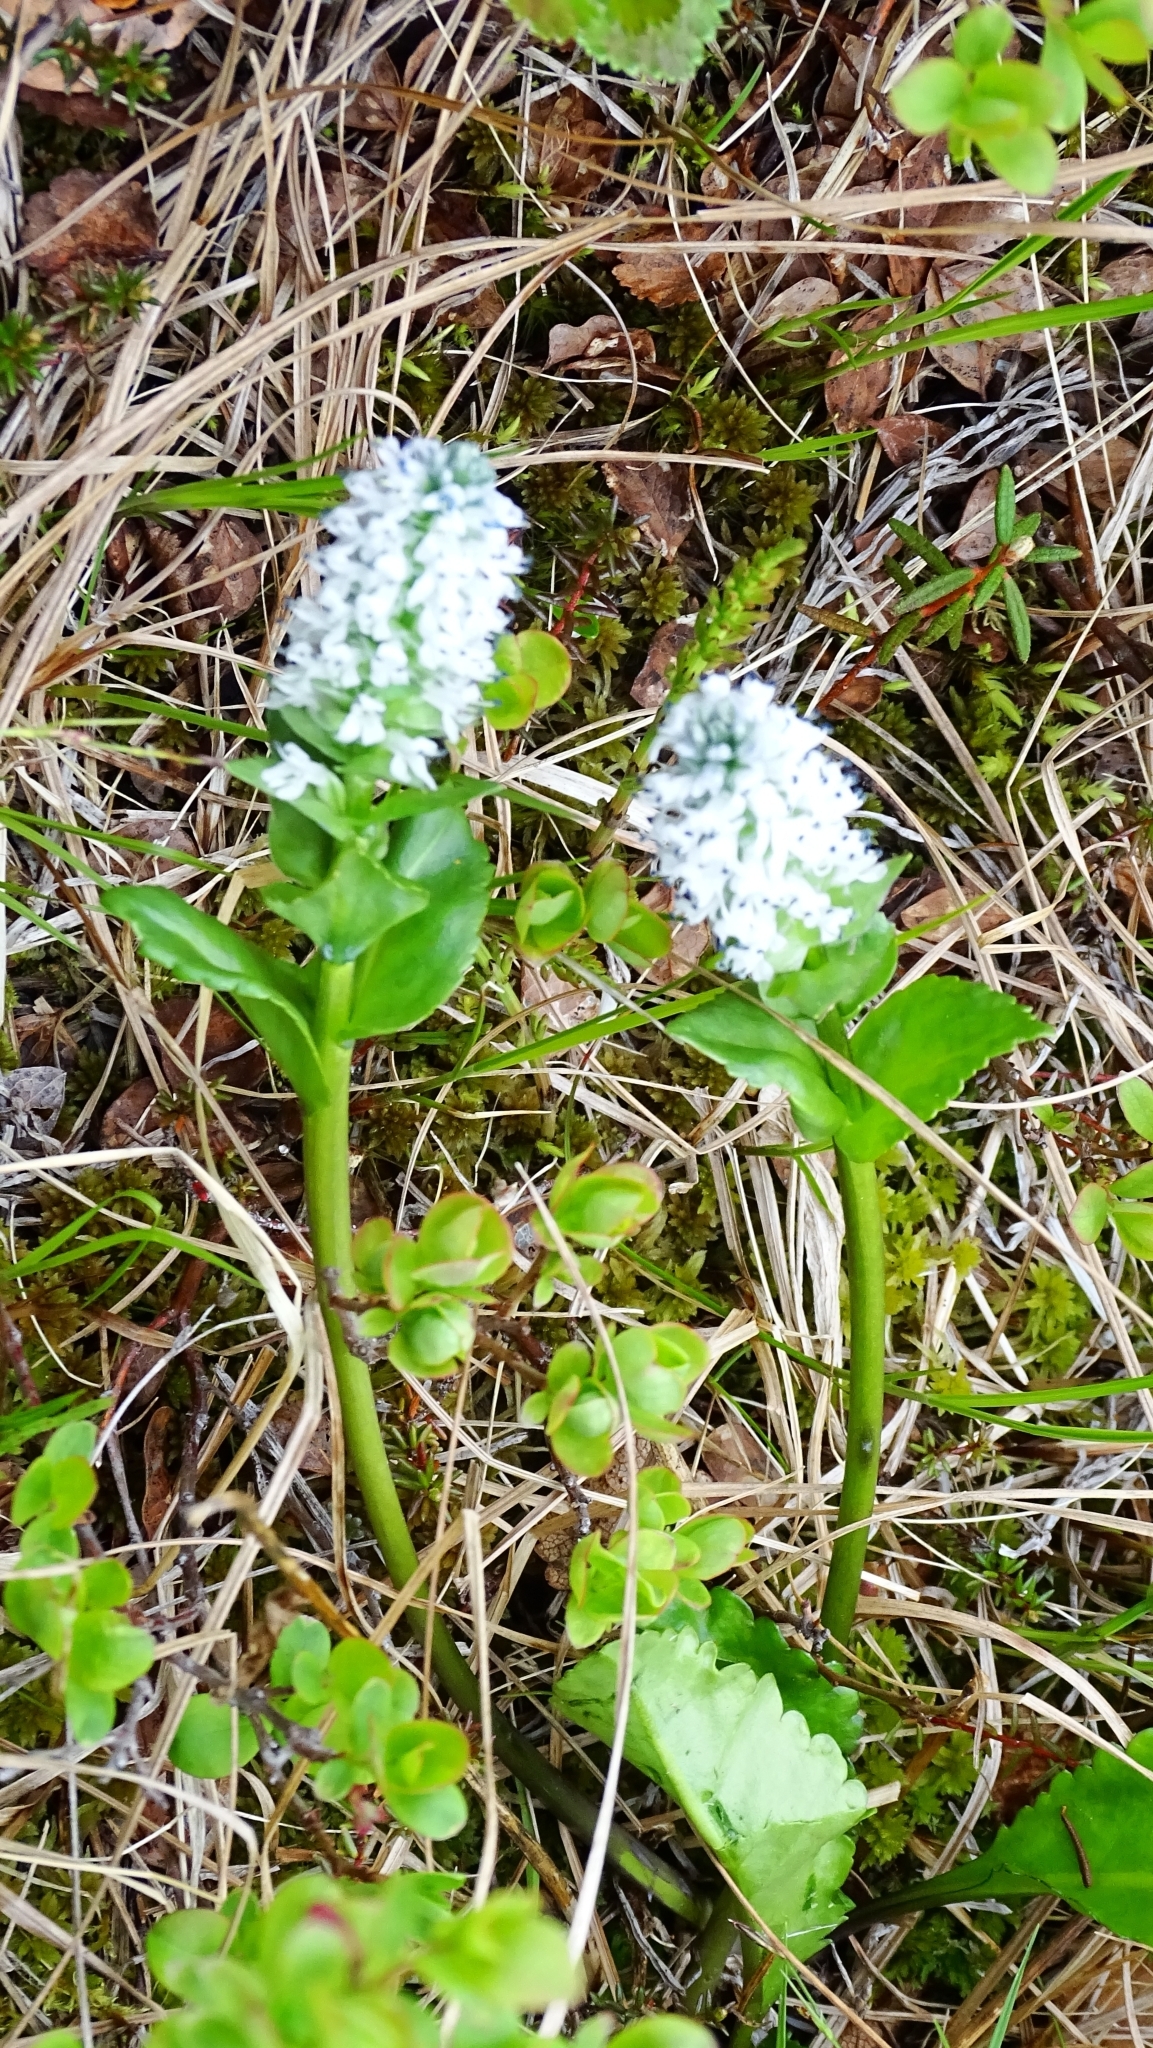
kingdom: Plantae
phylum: Tracheophyta
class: Magnoliopsida
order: Lamiales
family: Plantaginaceae
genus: Lagotis
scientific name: Lagotis glauca
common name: Glaucous weaselsnout
